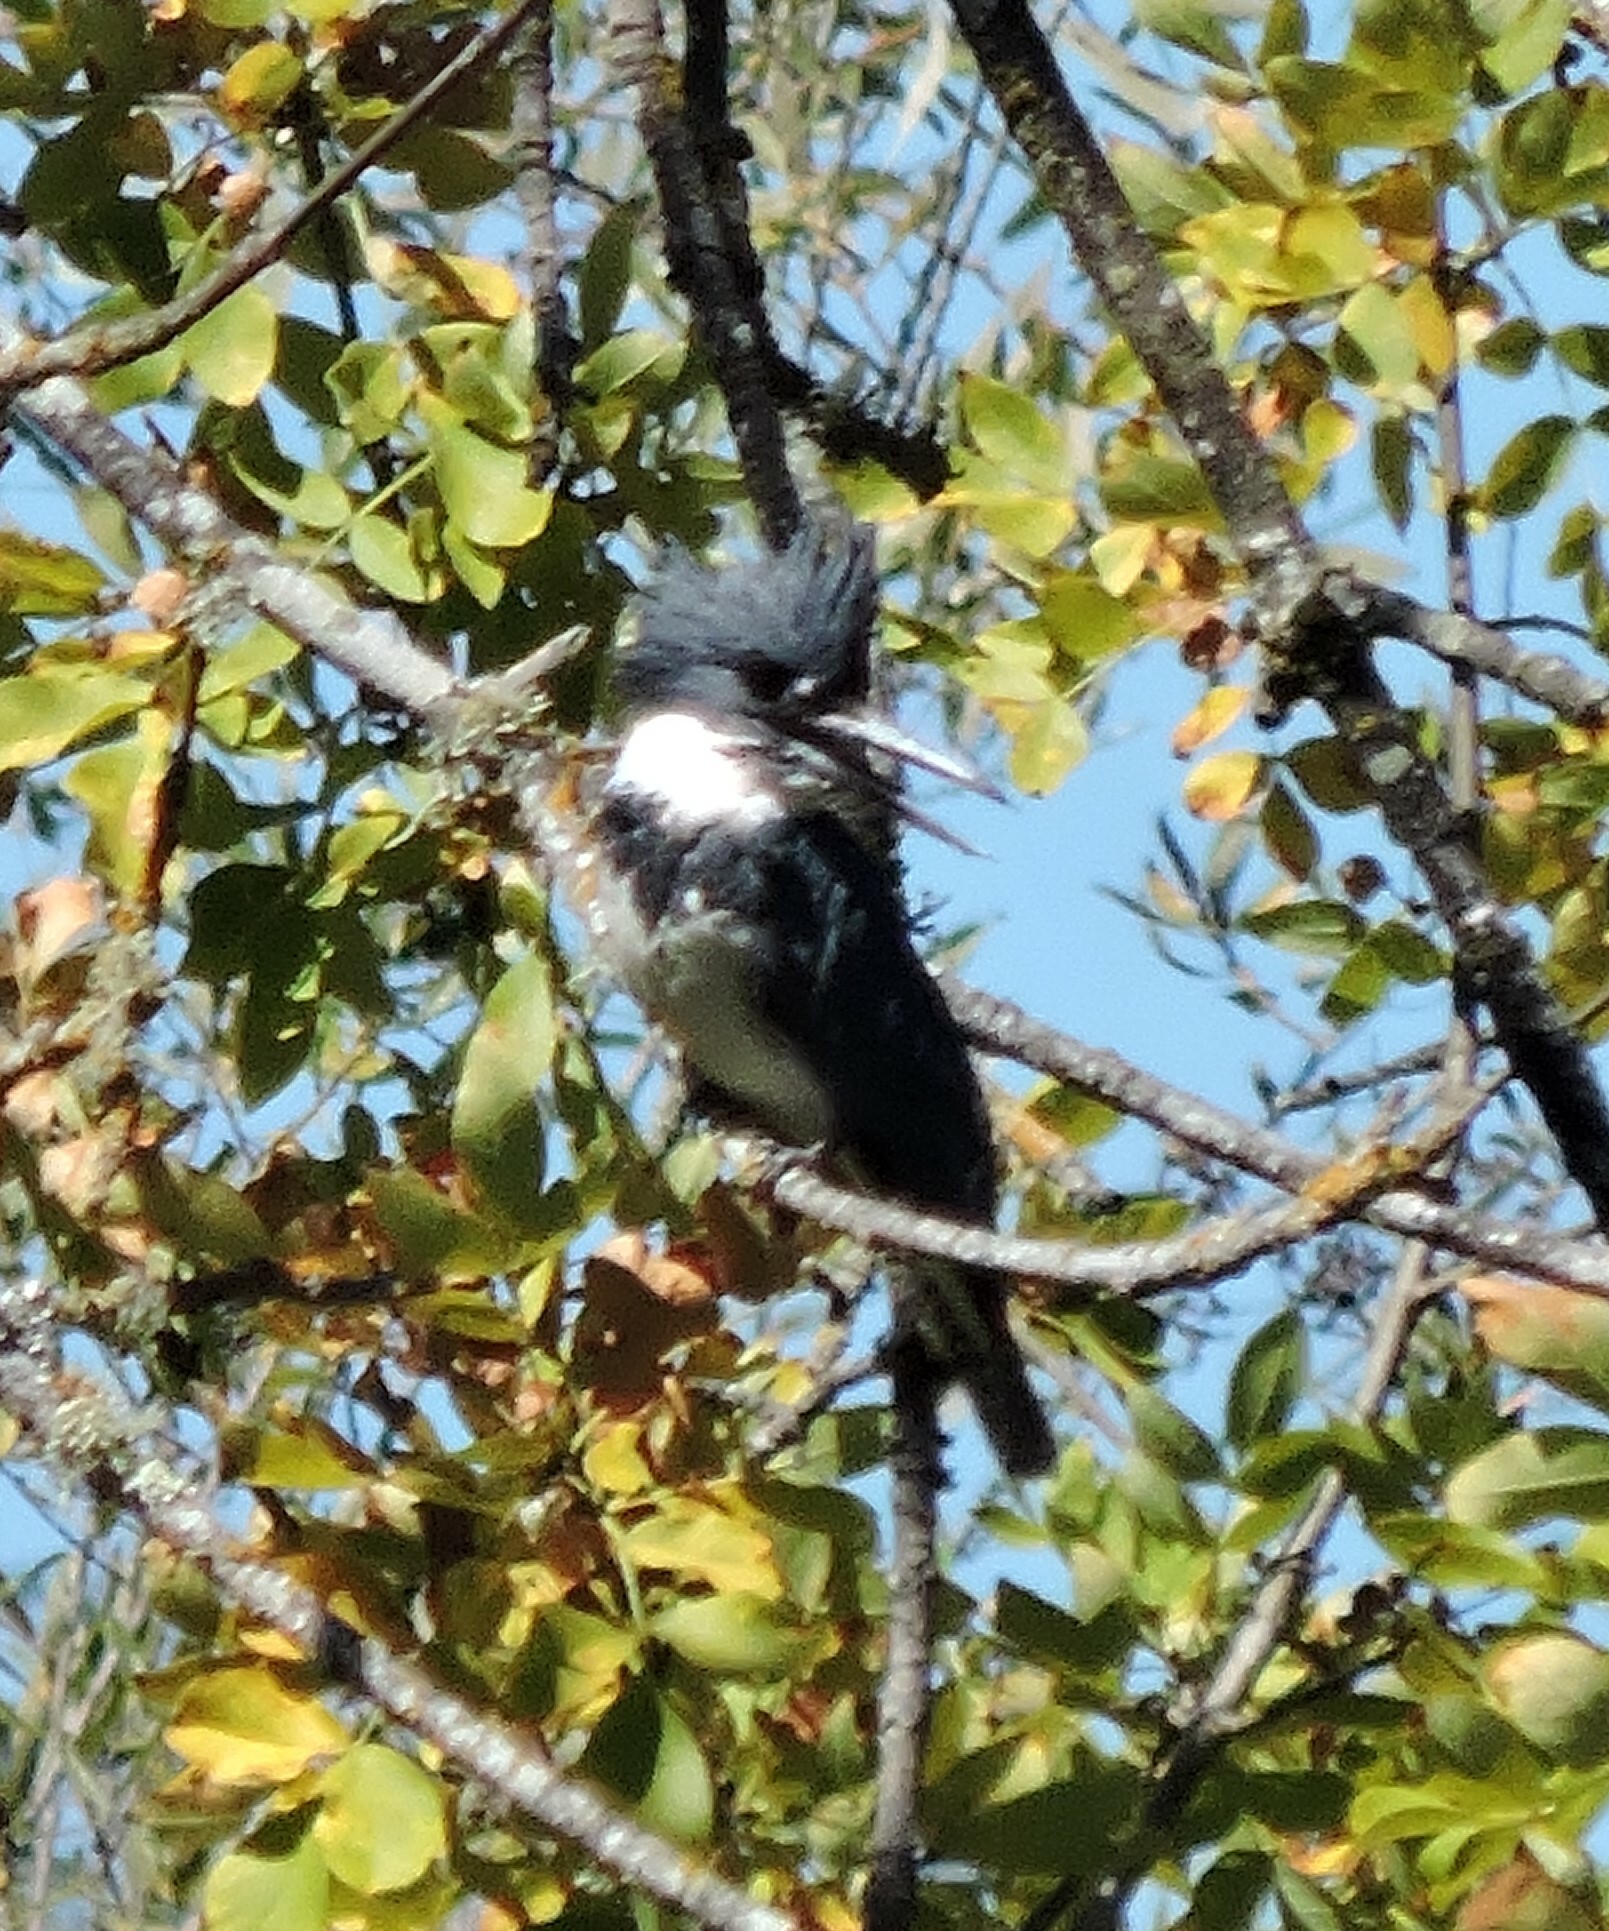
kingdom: Animalia
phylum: Chordata
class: Aves
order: Coraciiformes
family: Alcedinidae
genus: Megaceryle
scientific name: Megaceryle alcyon
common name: Belted kingfisher
